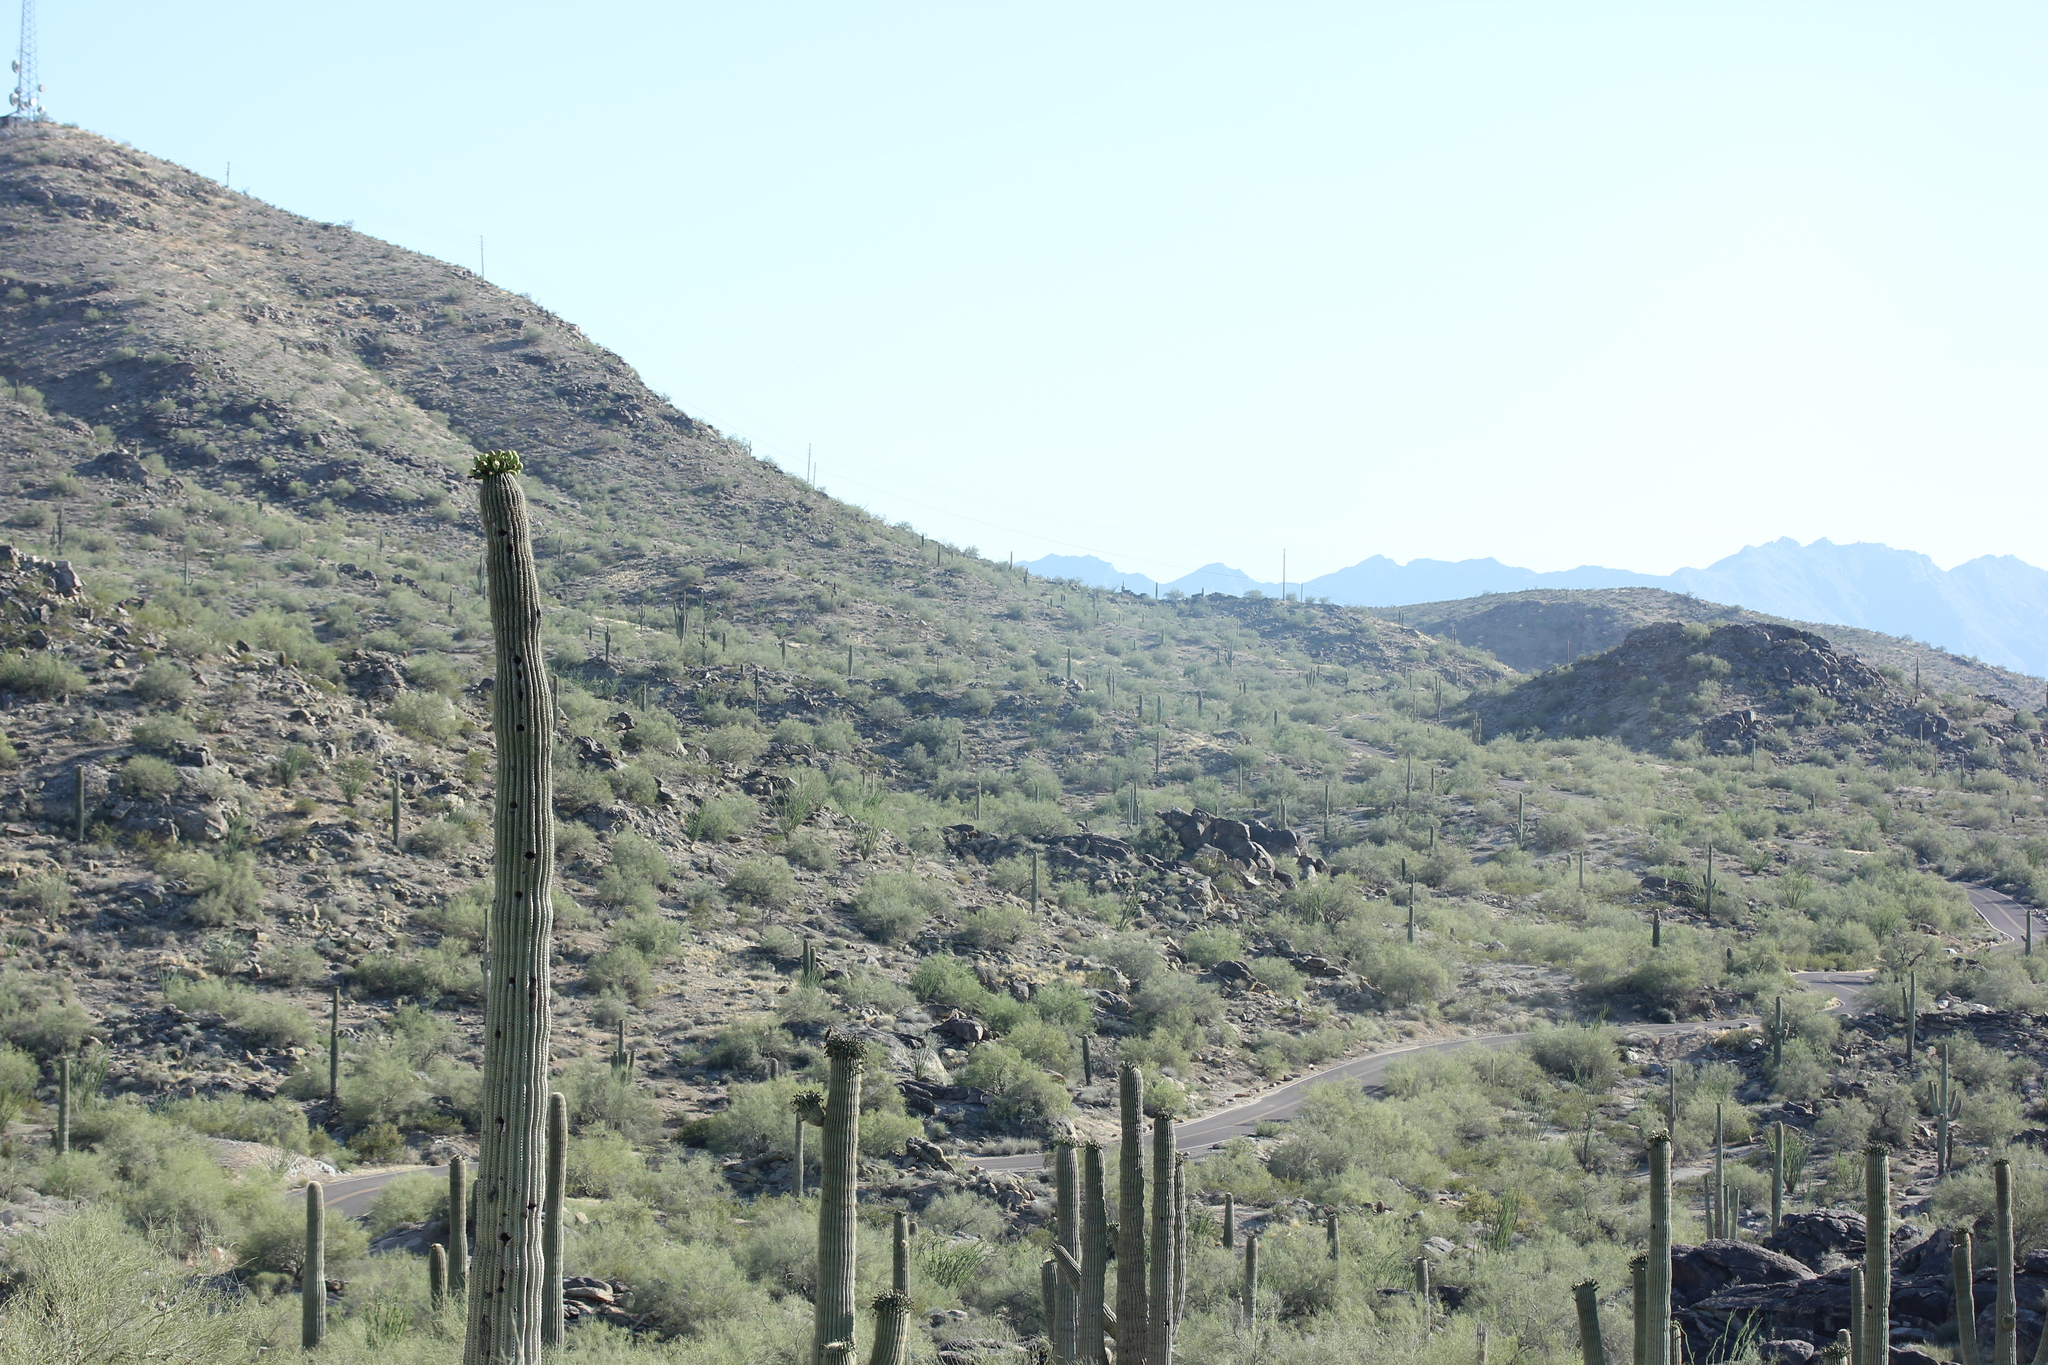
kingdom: Plantae
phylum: Tracheophyta
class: Magnoliopsida
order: Caryophyllales
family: Cactaceae
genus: Carnegiea
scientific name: Carnegiea gigantea
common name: Saguaro
